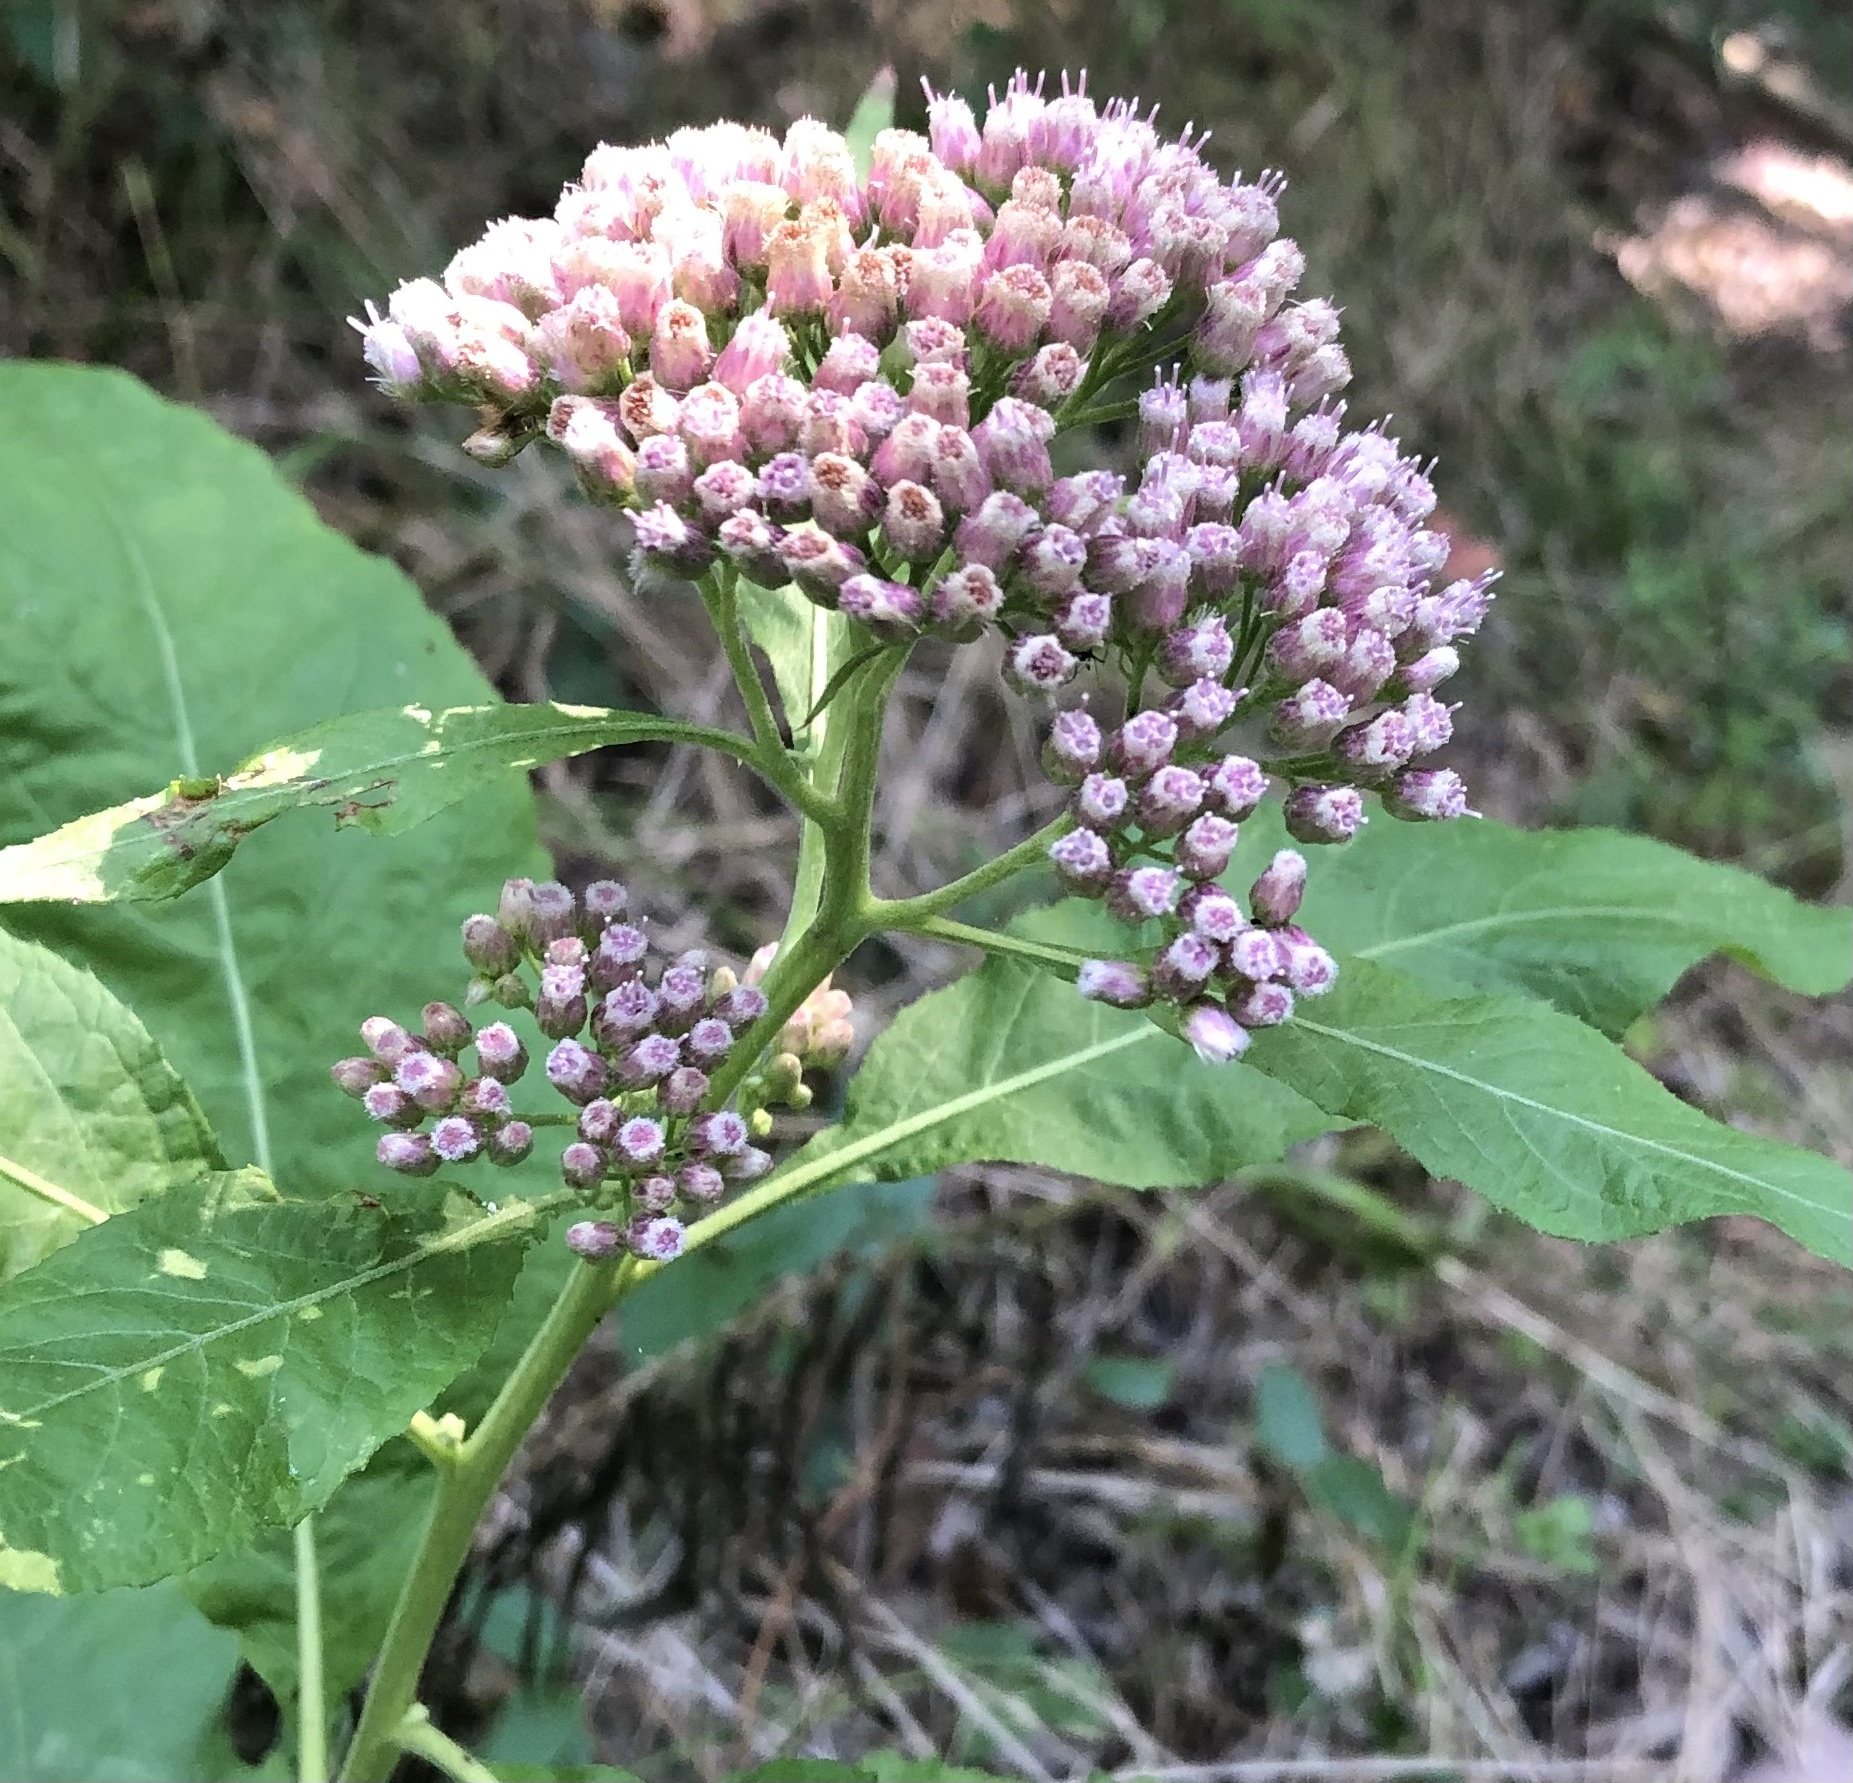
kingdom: Plantae
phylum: Tracheophyta
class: Magnoliopsida
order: Asterales
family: Asteraceae
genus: Pluchea
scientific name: Pluchea camphorata
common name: Camphor pluchea
